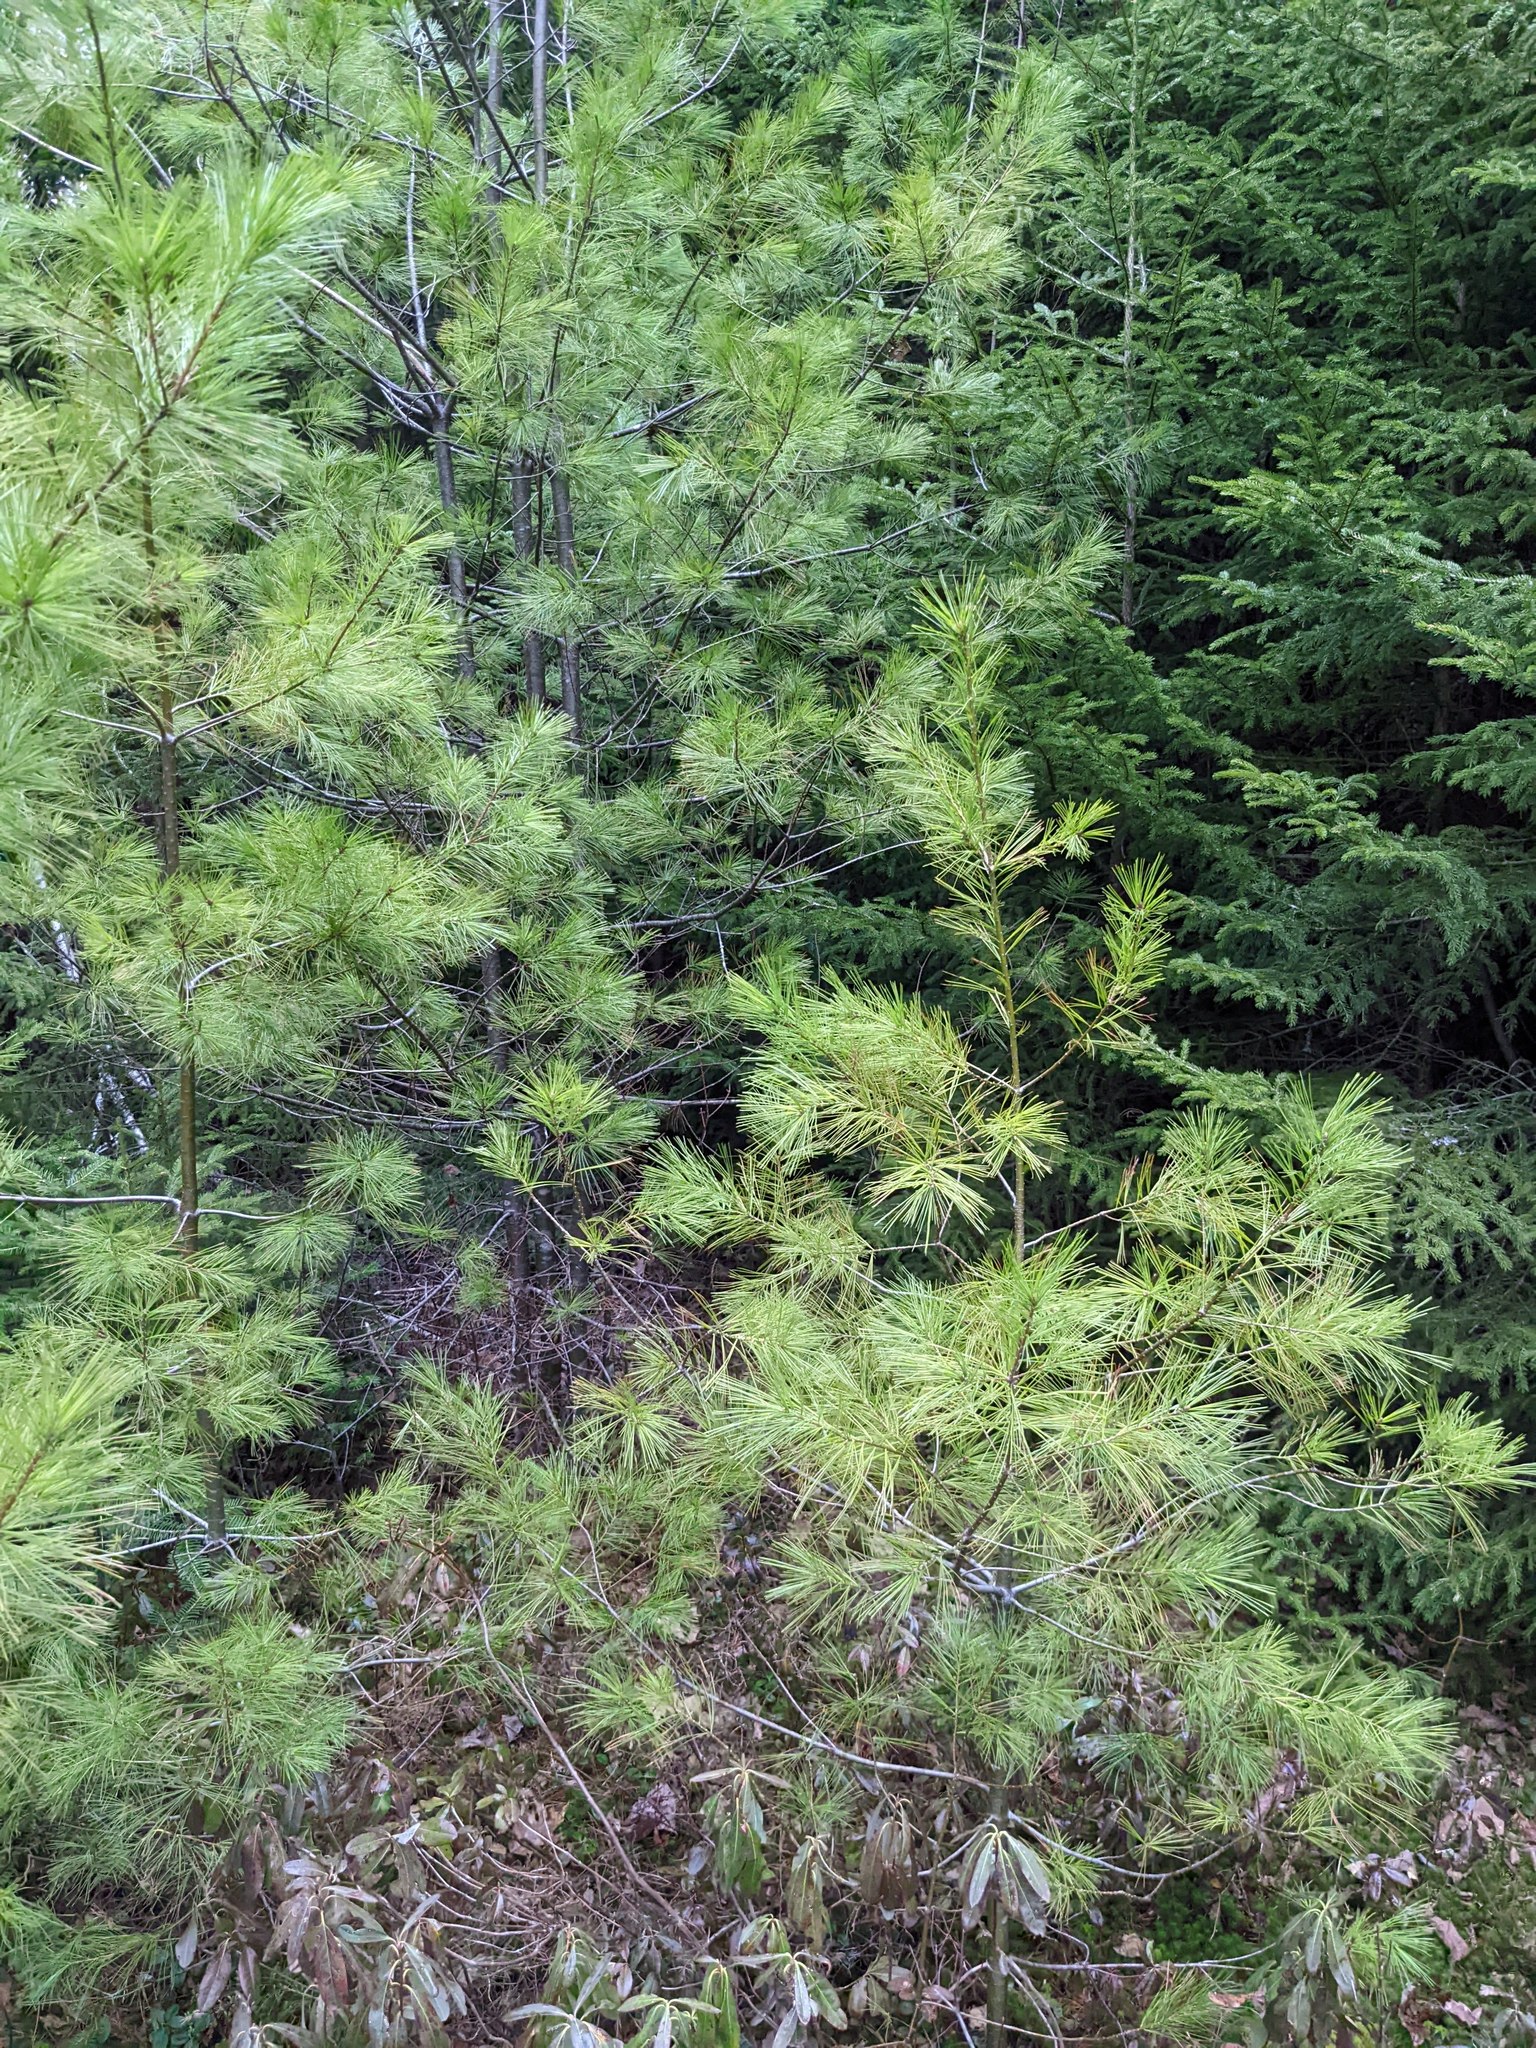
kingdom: Plantae
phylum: Tracheophyta
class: Pinopsida
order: Pinales
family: Pinaceae
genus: Pinus
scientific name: Pinus strobus
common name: Weymouth pine
